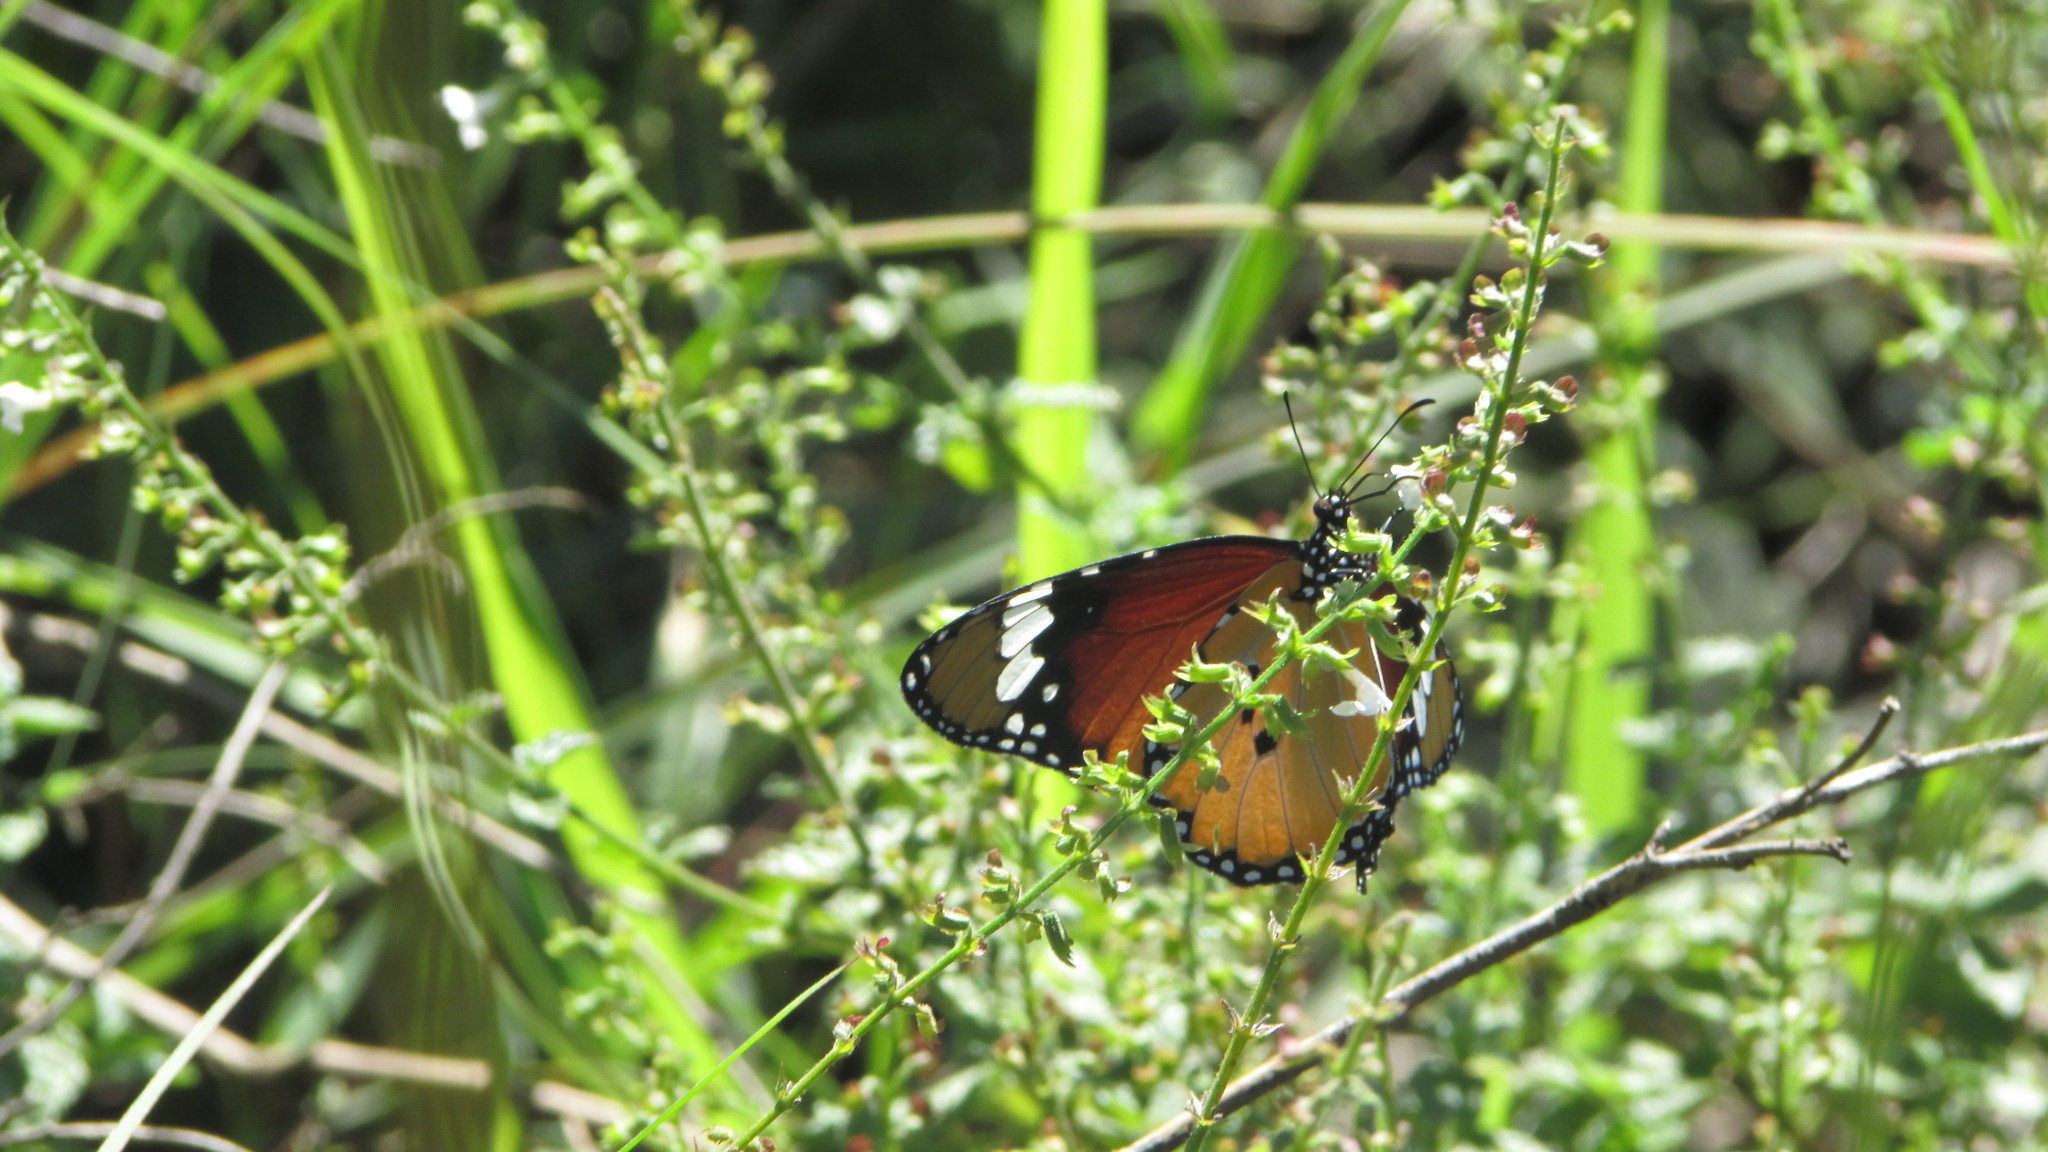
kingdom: Animalia
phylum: Arthropoda
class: Insecta
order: Lepidoptera
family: Nymphalidae
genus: Danaus
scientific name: Danaus chrysippus
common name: Plain tiger
